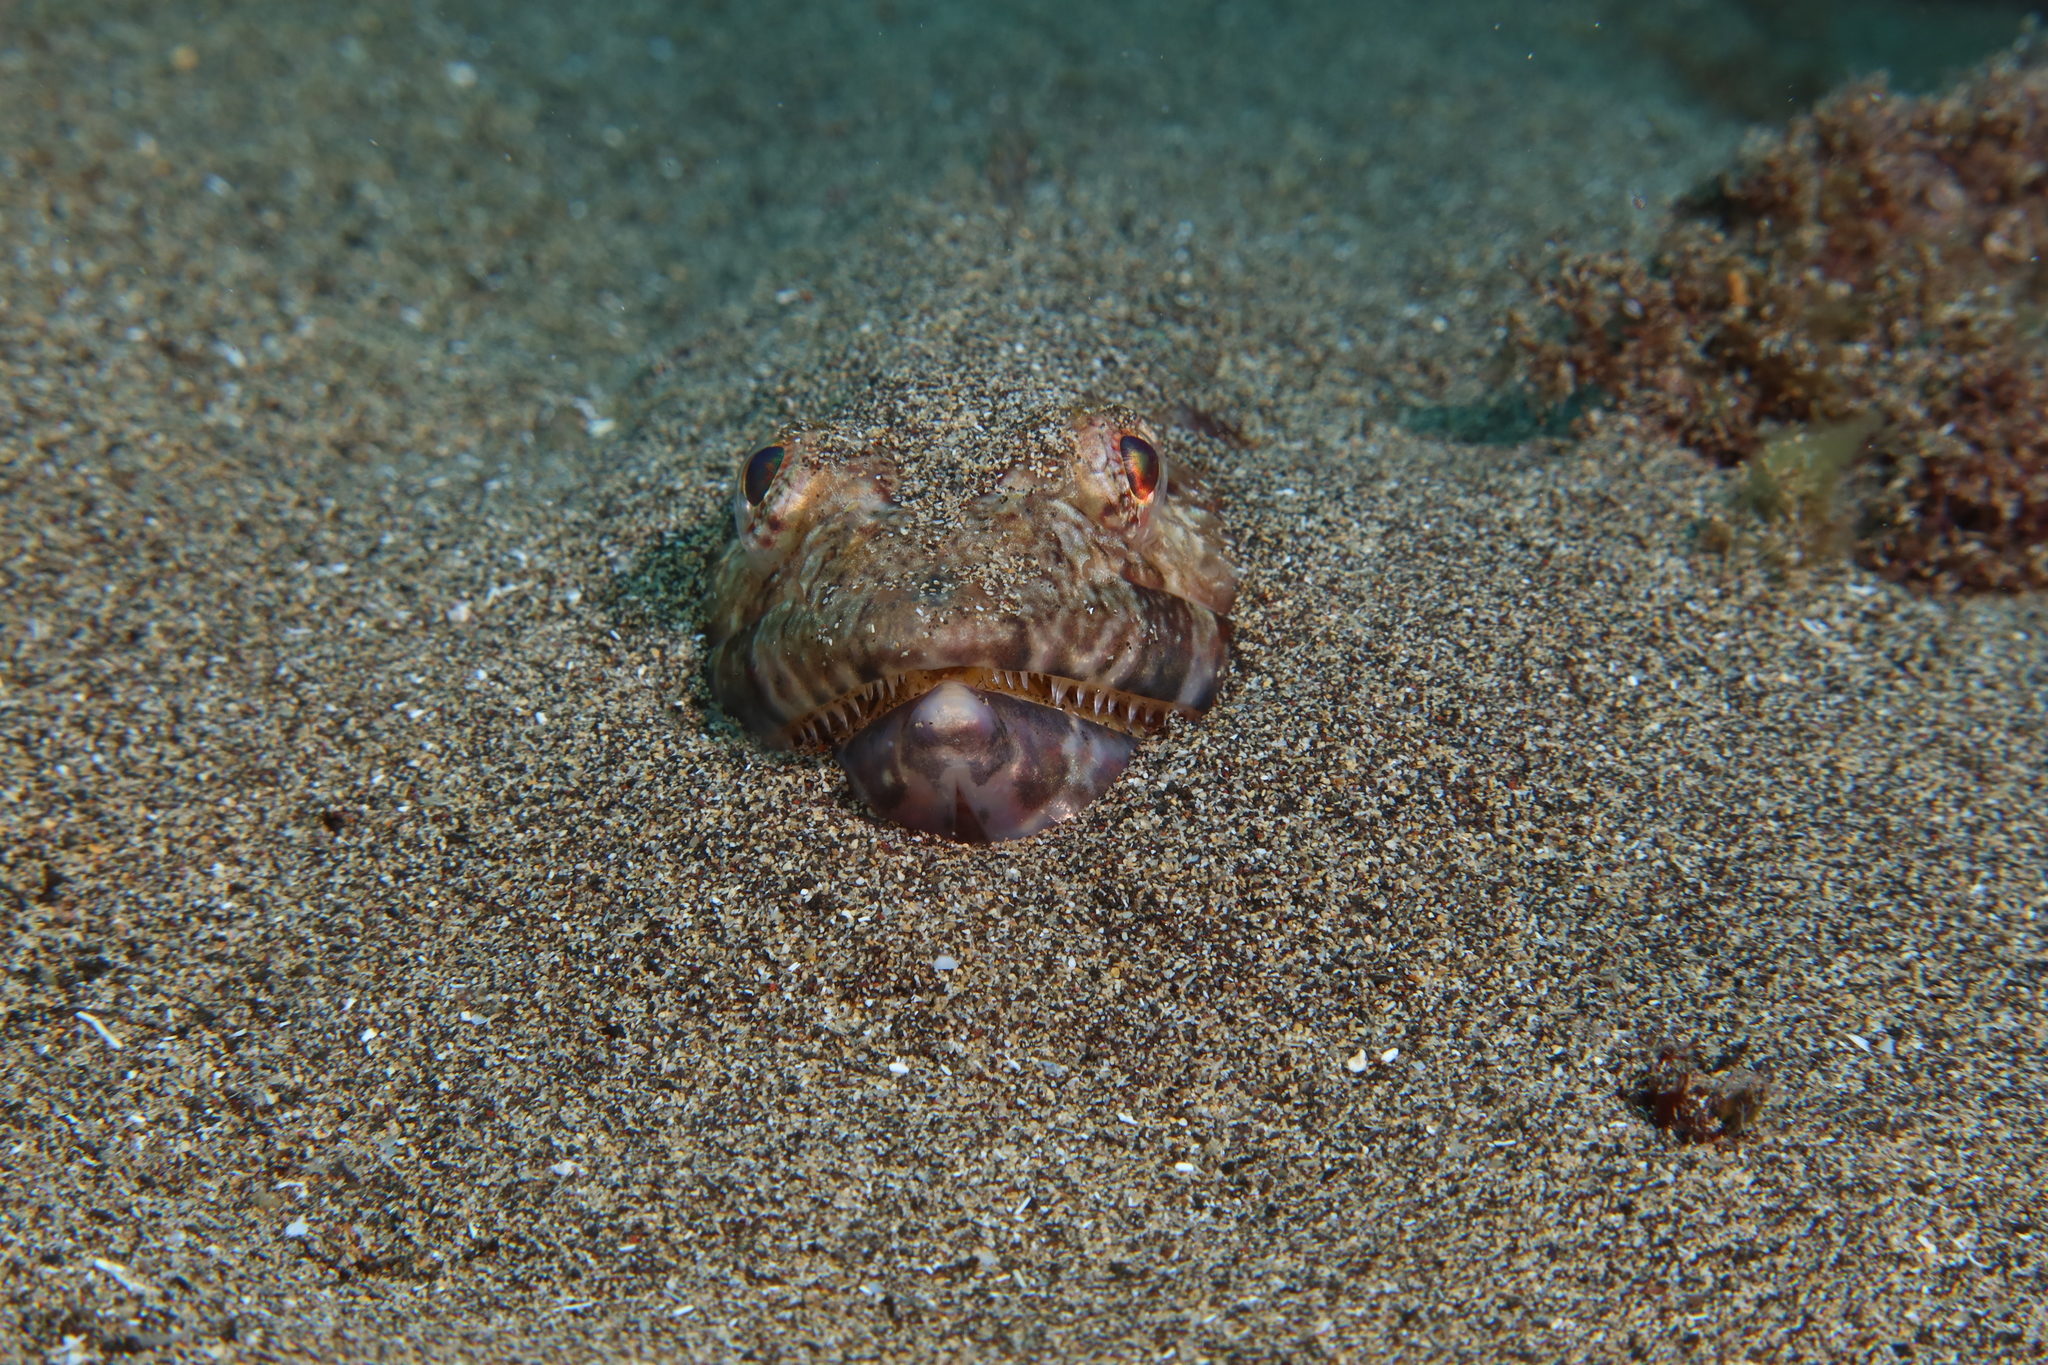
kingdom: Animalia
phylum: Chordata
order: Aulopiformes
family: Synodontidae
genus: Synodus
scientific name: Synodus synodus
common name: Red lizardfish
